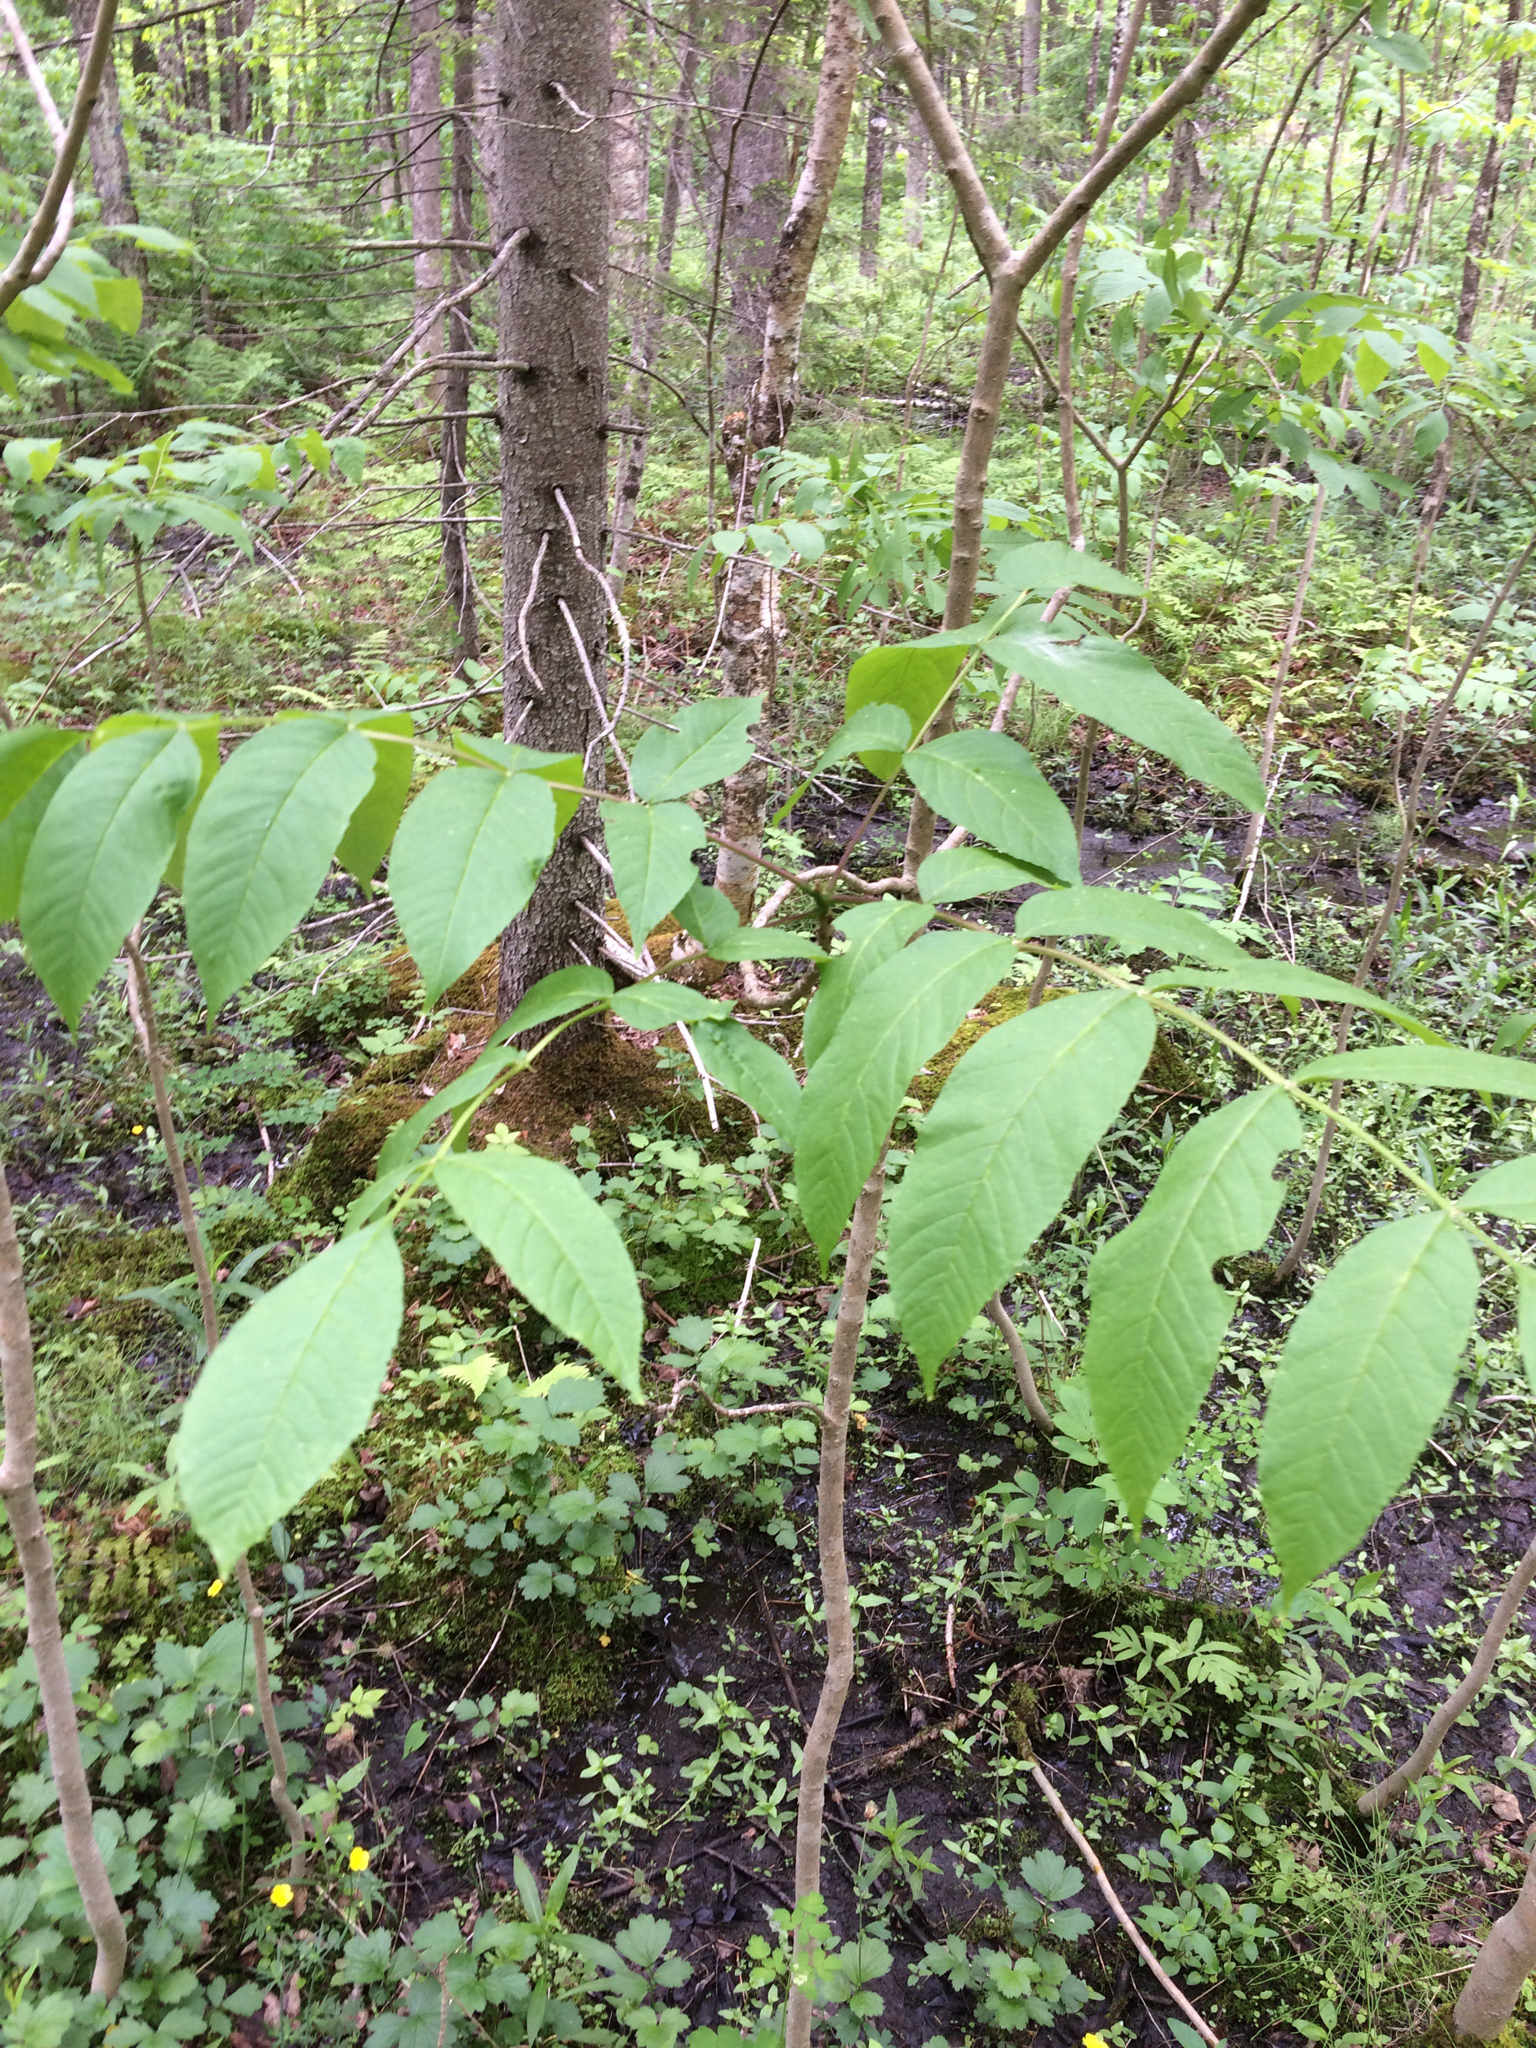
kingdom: Plantae
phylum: Tracheophyta
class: Magnoliopsida
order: Lamiales
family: Oleaceae
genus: Fraxinus
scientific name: Fraxinus nigra
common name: Black ash
